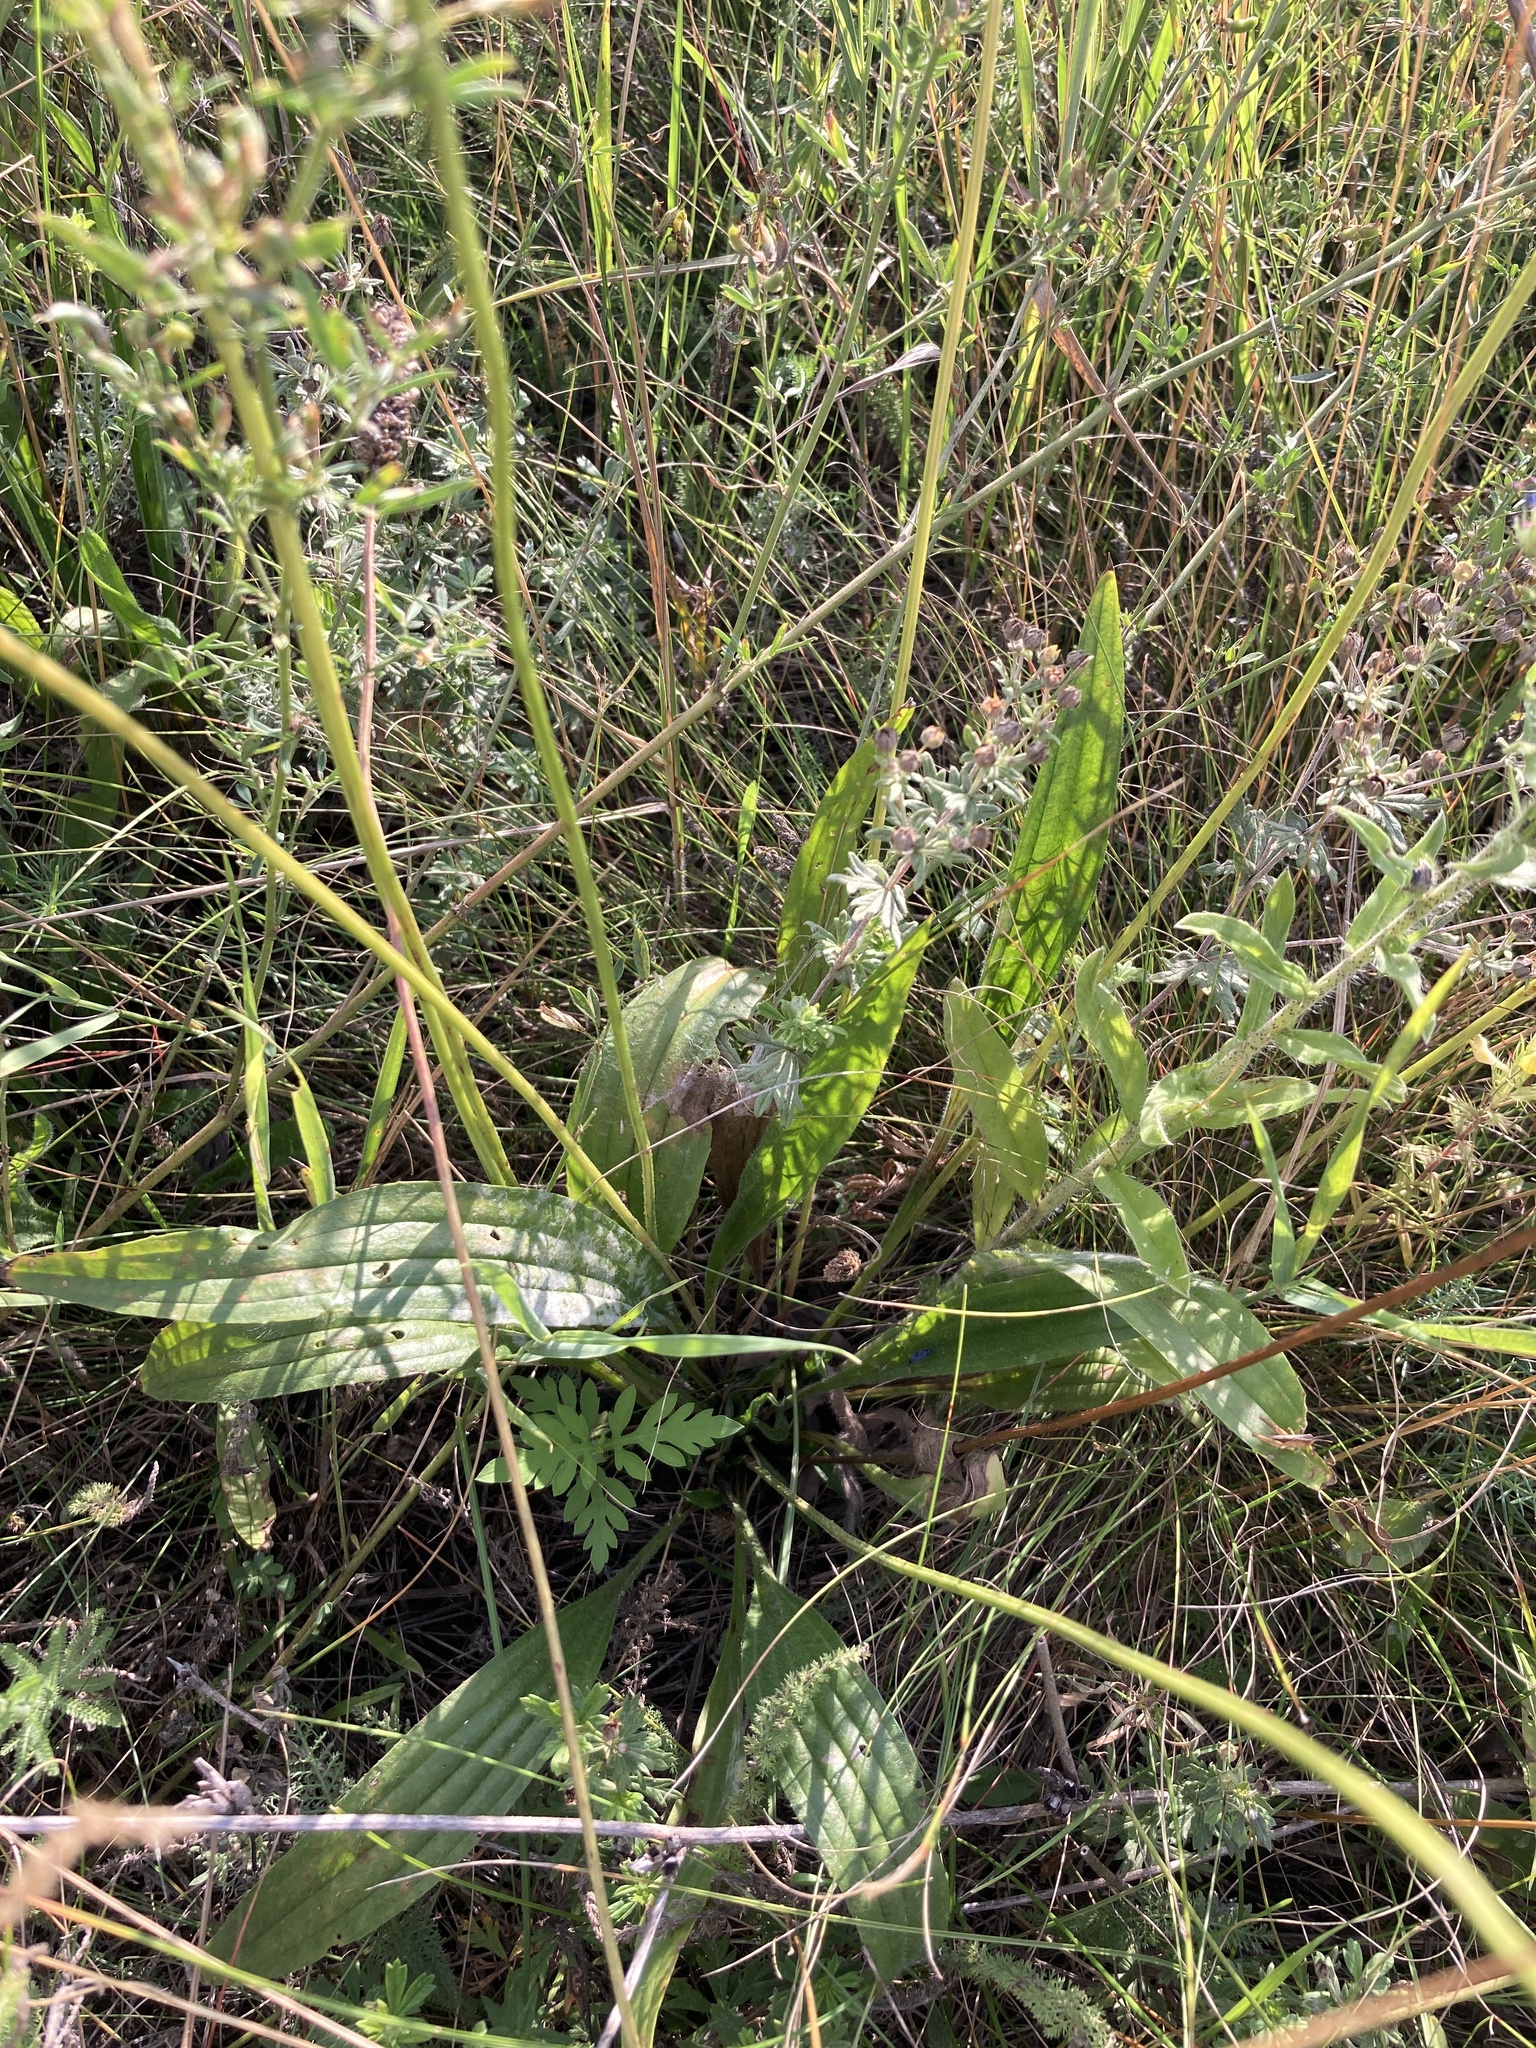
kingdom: Plantae
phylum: Tracheophyta
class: Magnoliopsida
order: Lamiales
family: Plantaginaceae
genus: Plantago
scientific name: Plantago urvillei
